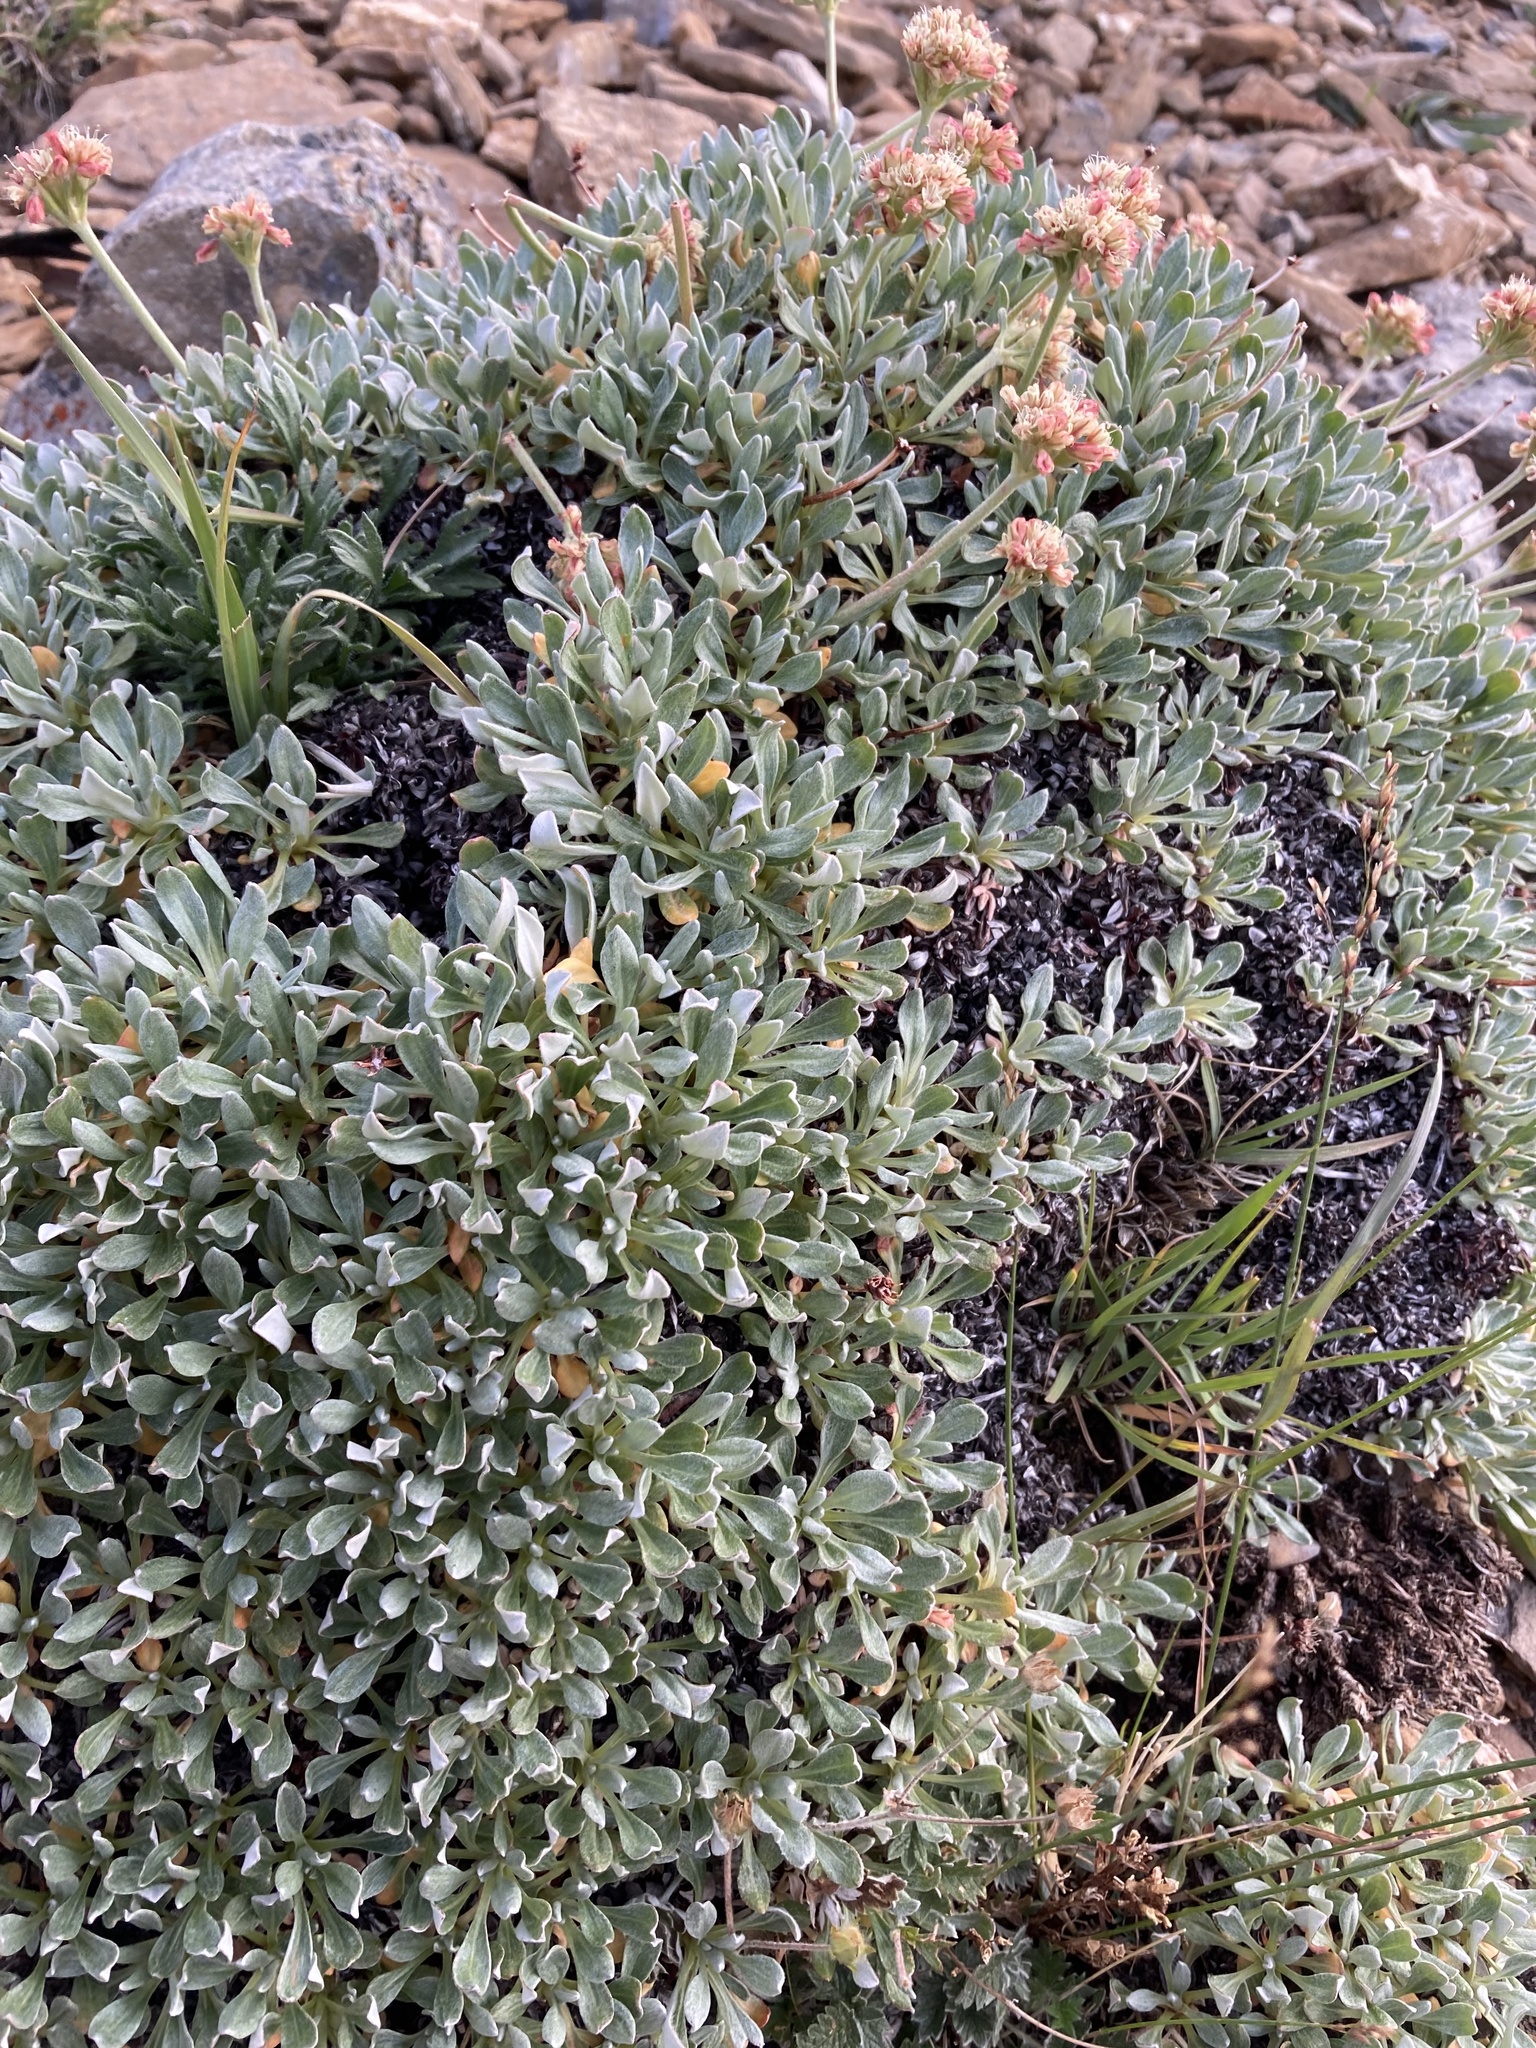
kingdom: Plantae
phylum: Tracheophyta
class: Magnoliopsida
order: Caryophyllales
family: Polygonaceae
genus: Eriogonum
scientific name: Eriogonum androsaceum
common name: Rock-jasmine wild buckwheat
